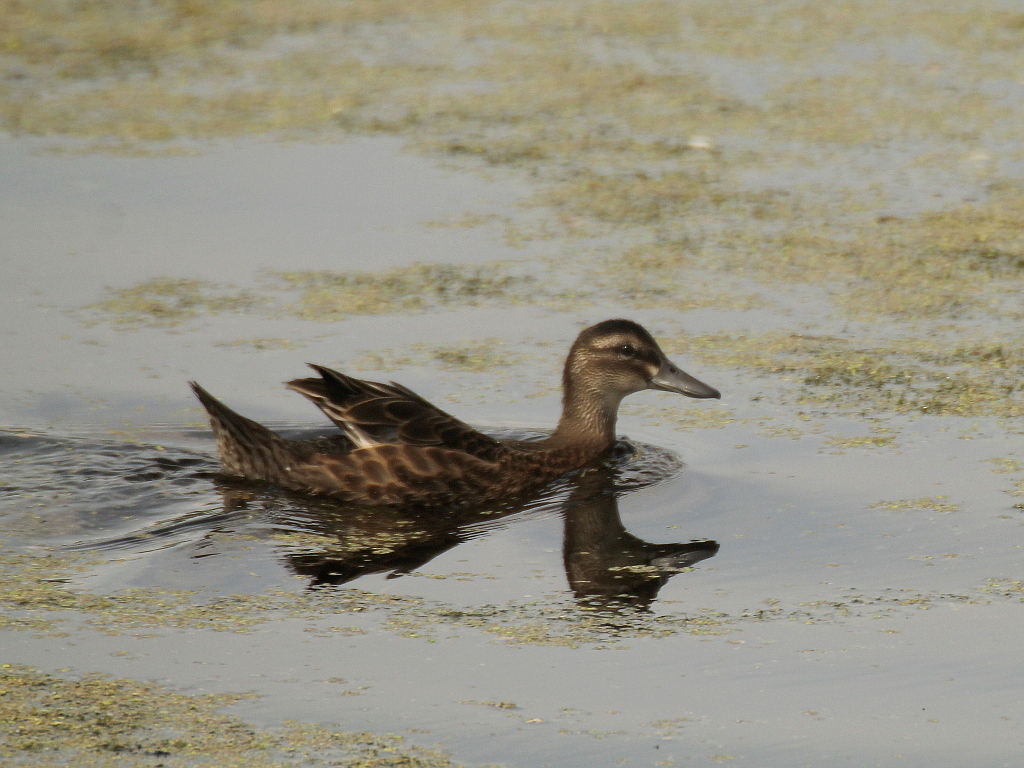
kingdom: Animalia
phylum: Chordata
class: Aves
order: Anseriformes
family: Anatidae
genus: Spatula
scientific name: Spatula querquedula
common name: Garganey
